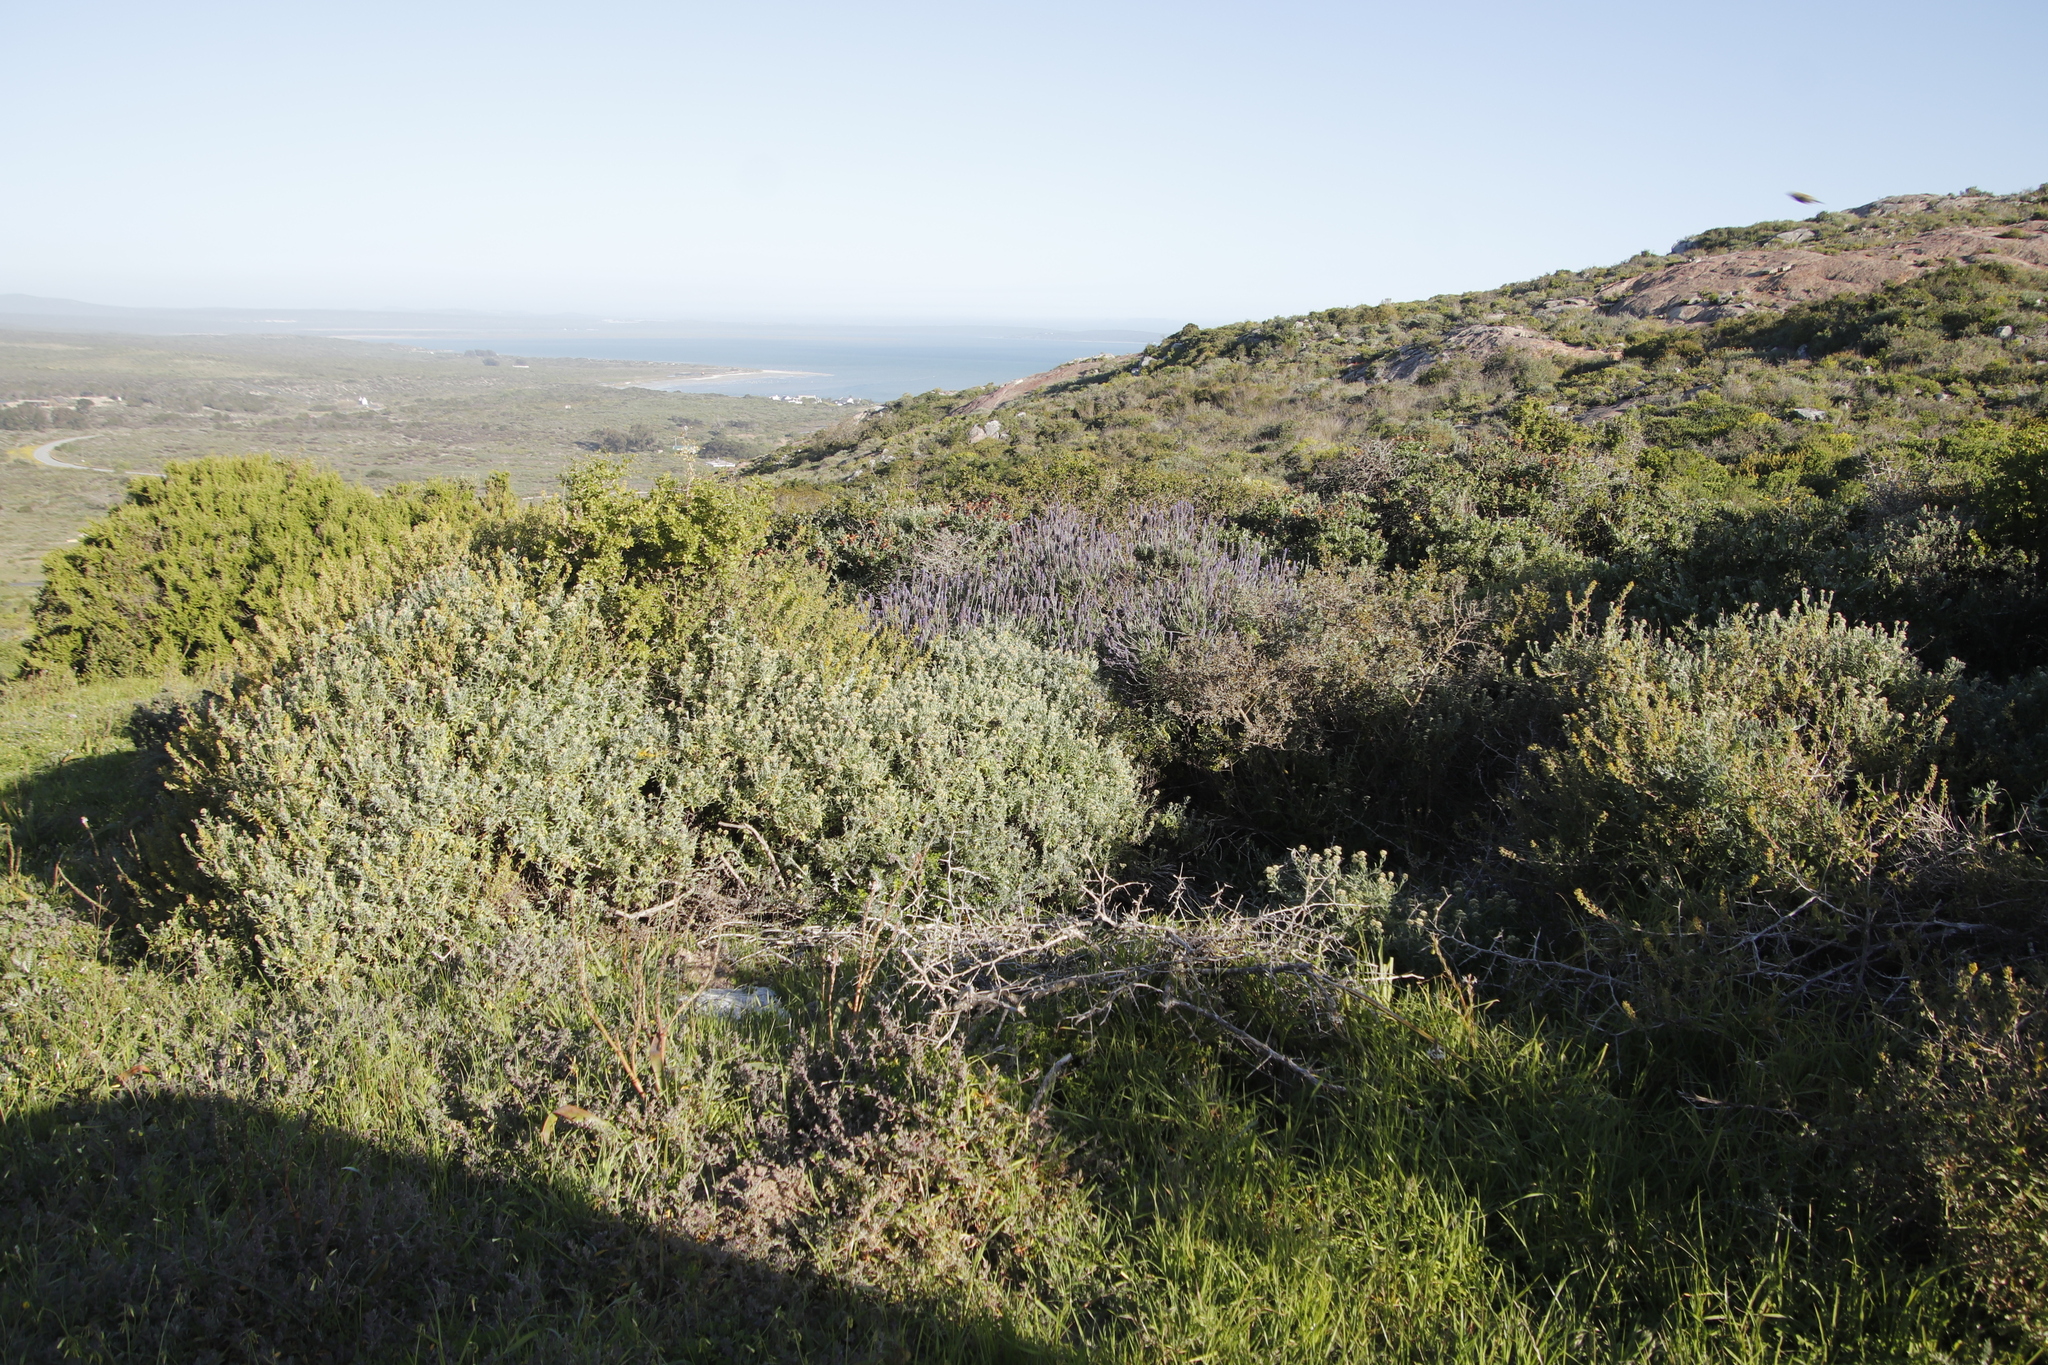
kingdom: Plantae
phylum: Tracheophyta
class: Magnoliopsida
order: Lamiales
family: Lamiaceae
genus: Lavandula
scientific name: Lavandula dentata
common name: French lavender
